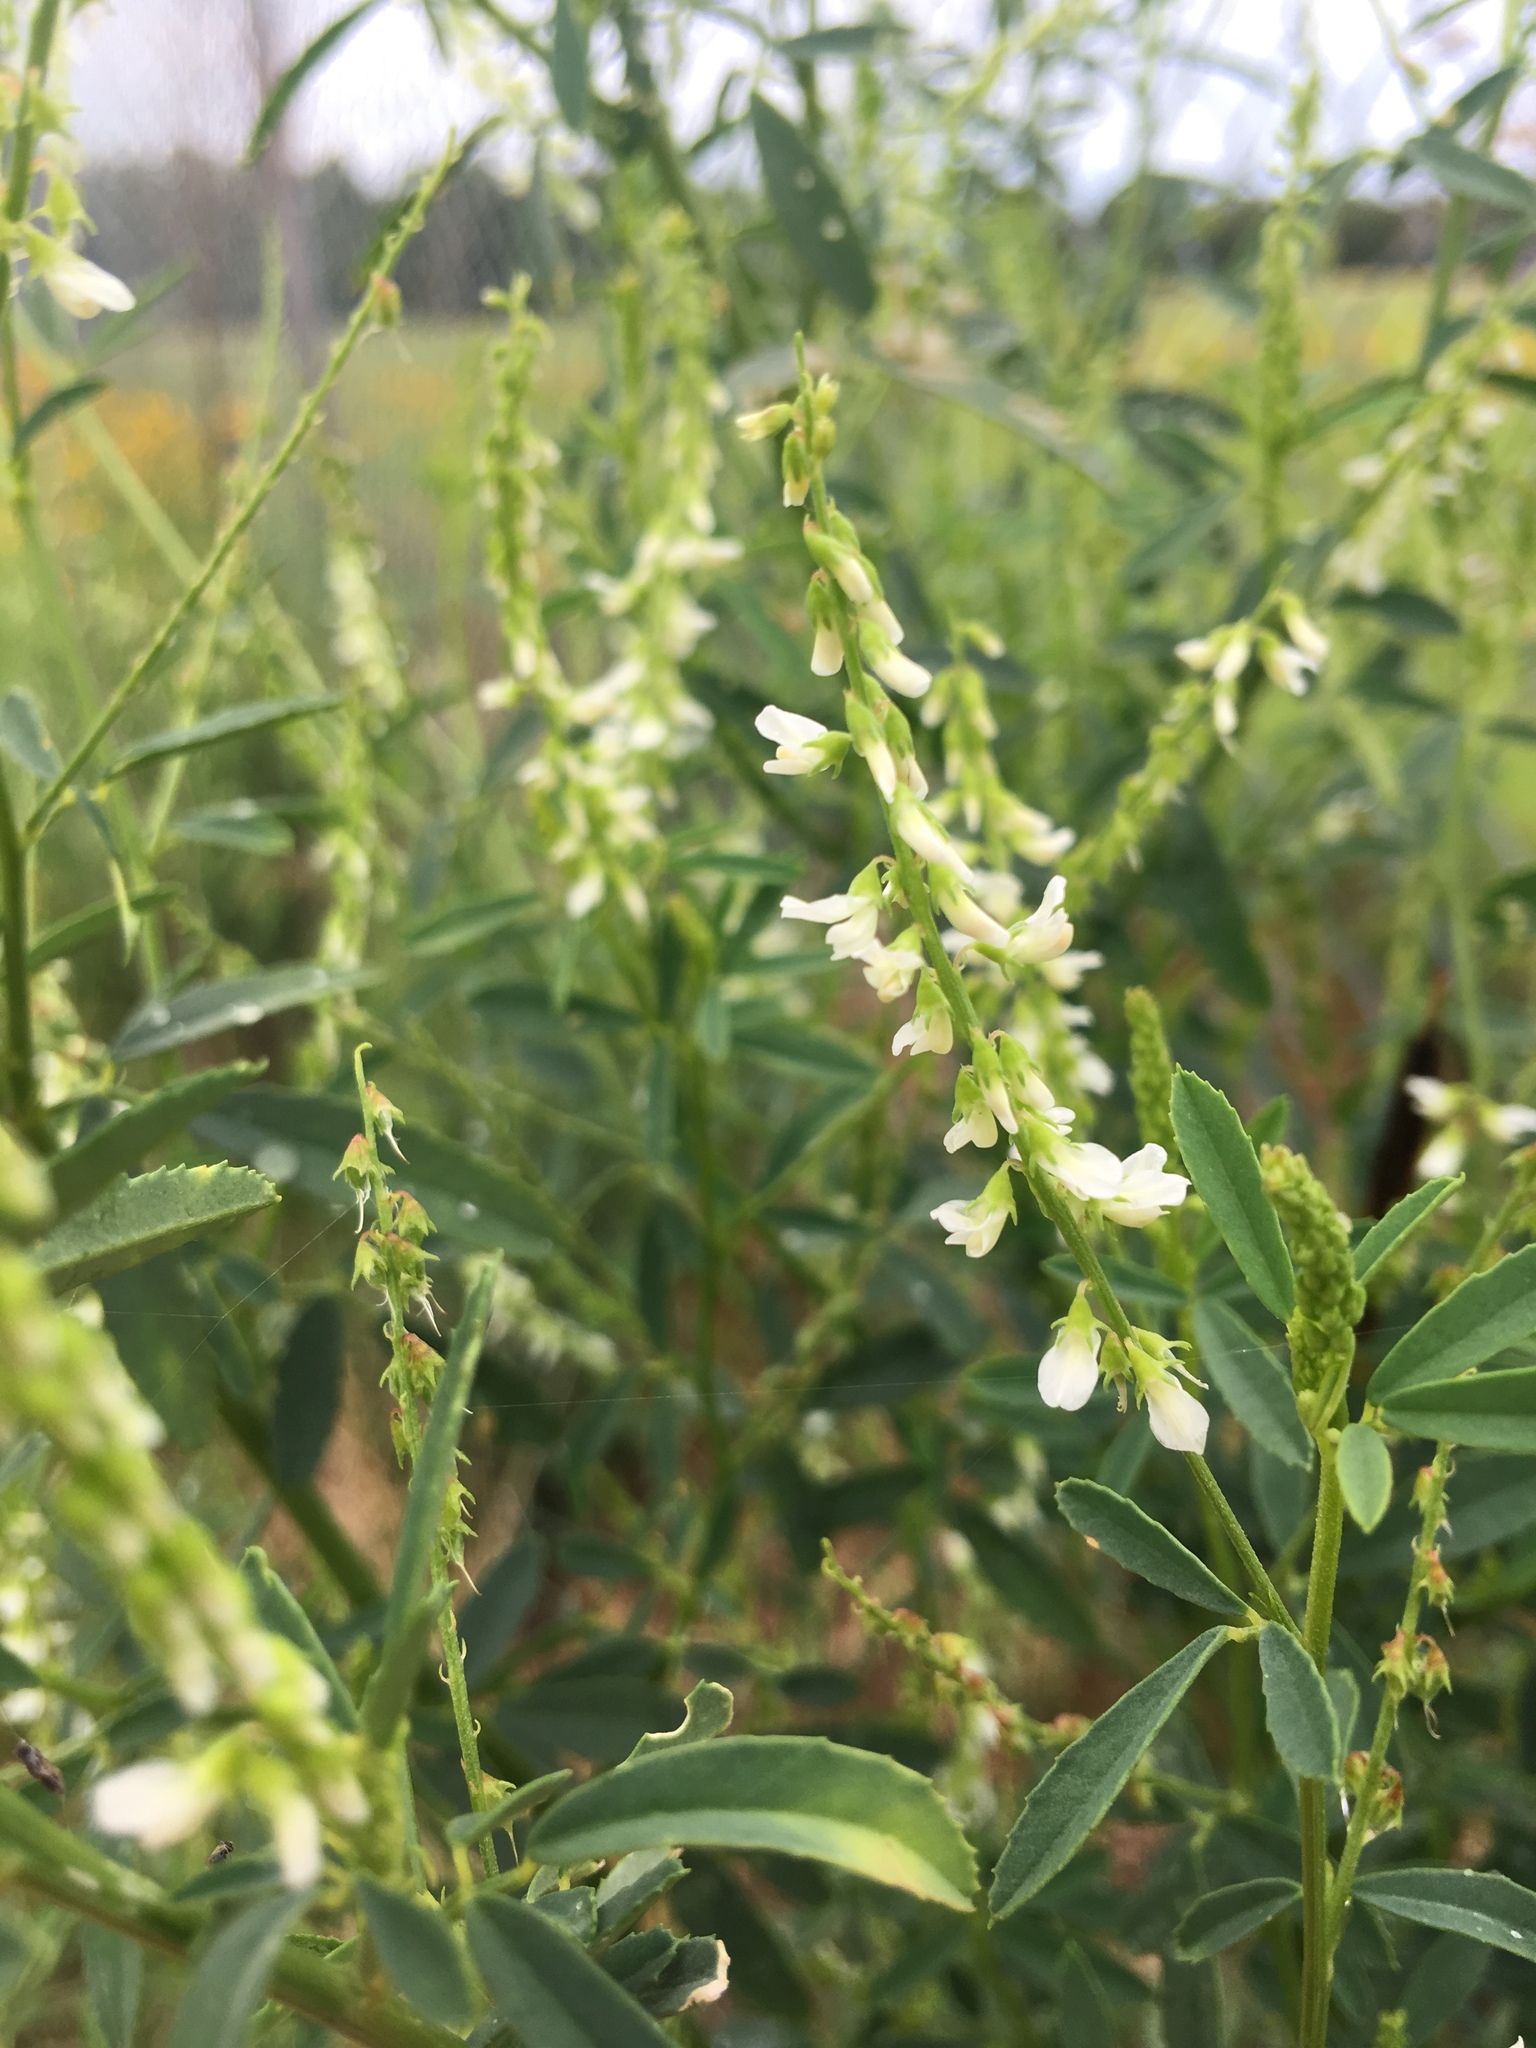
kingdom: Plantae
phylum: Tracheophyta
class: Magnoliopsida
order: Fabales
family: Fabaceae
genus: Melilotus
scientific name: Melilotus albus
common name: White melilot
